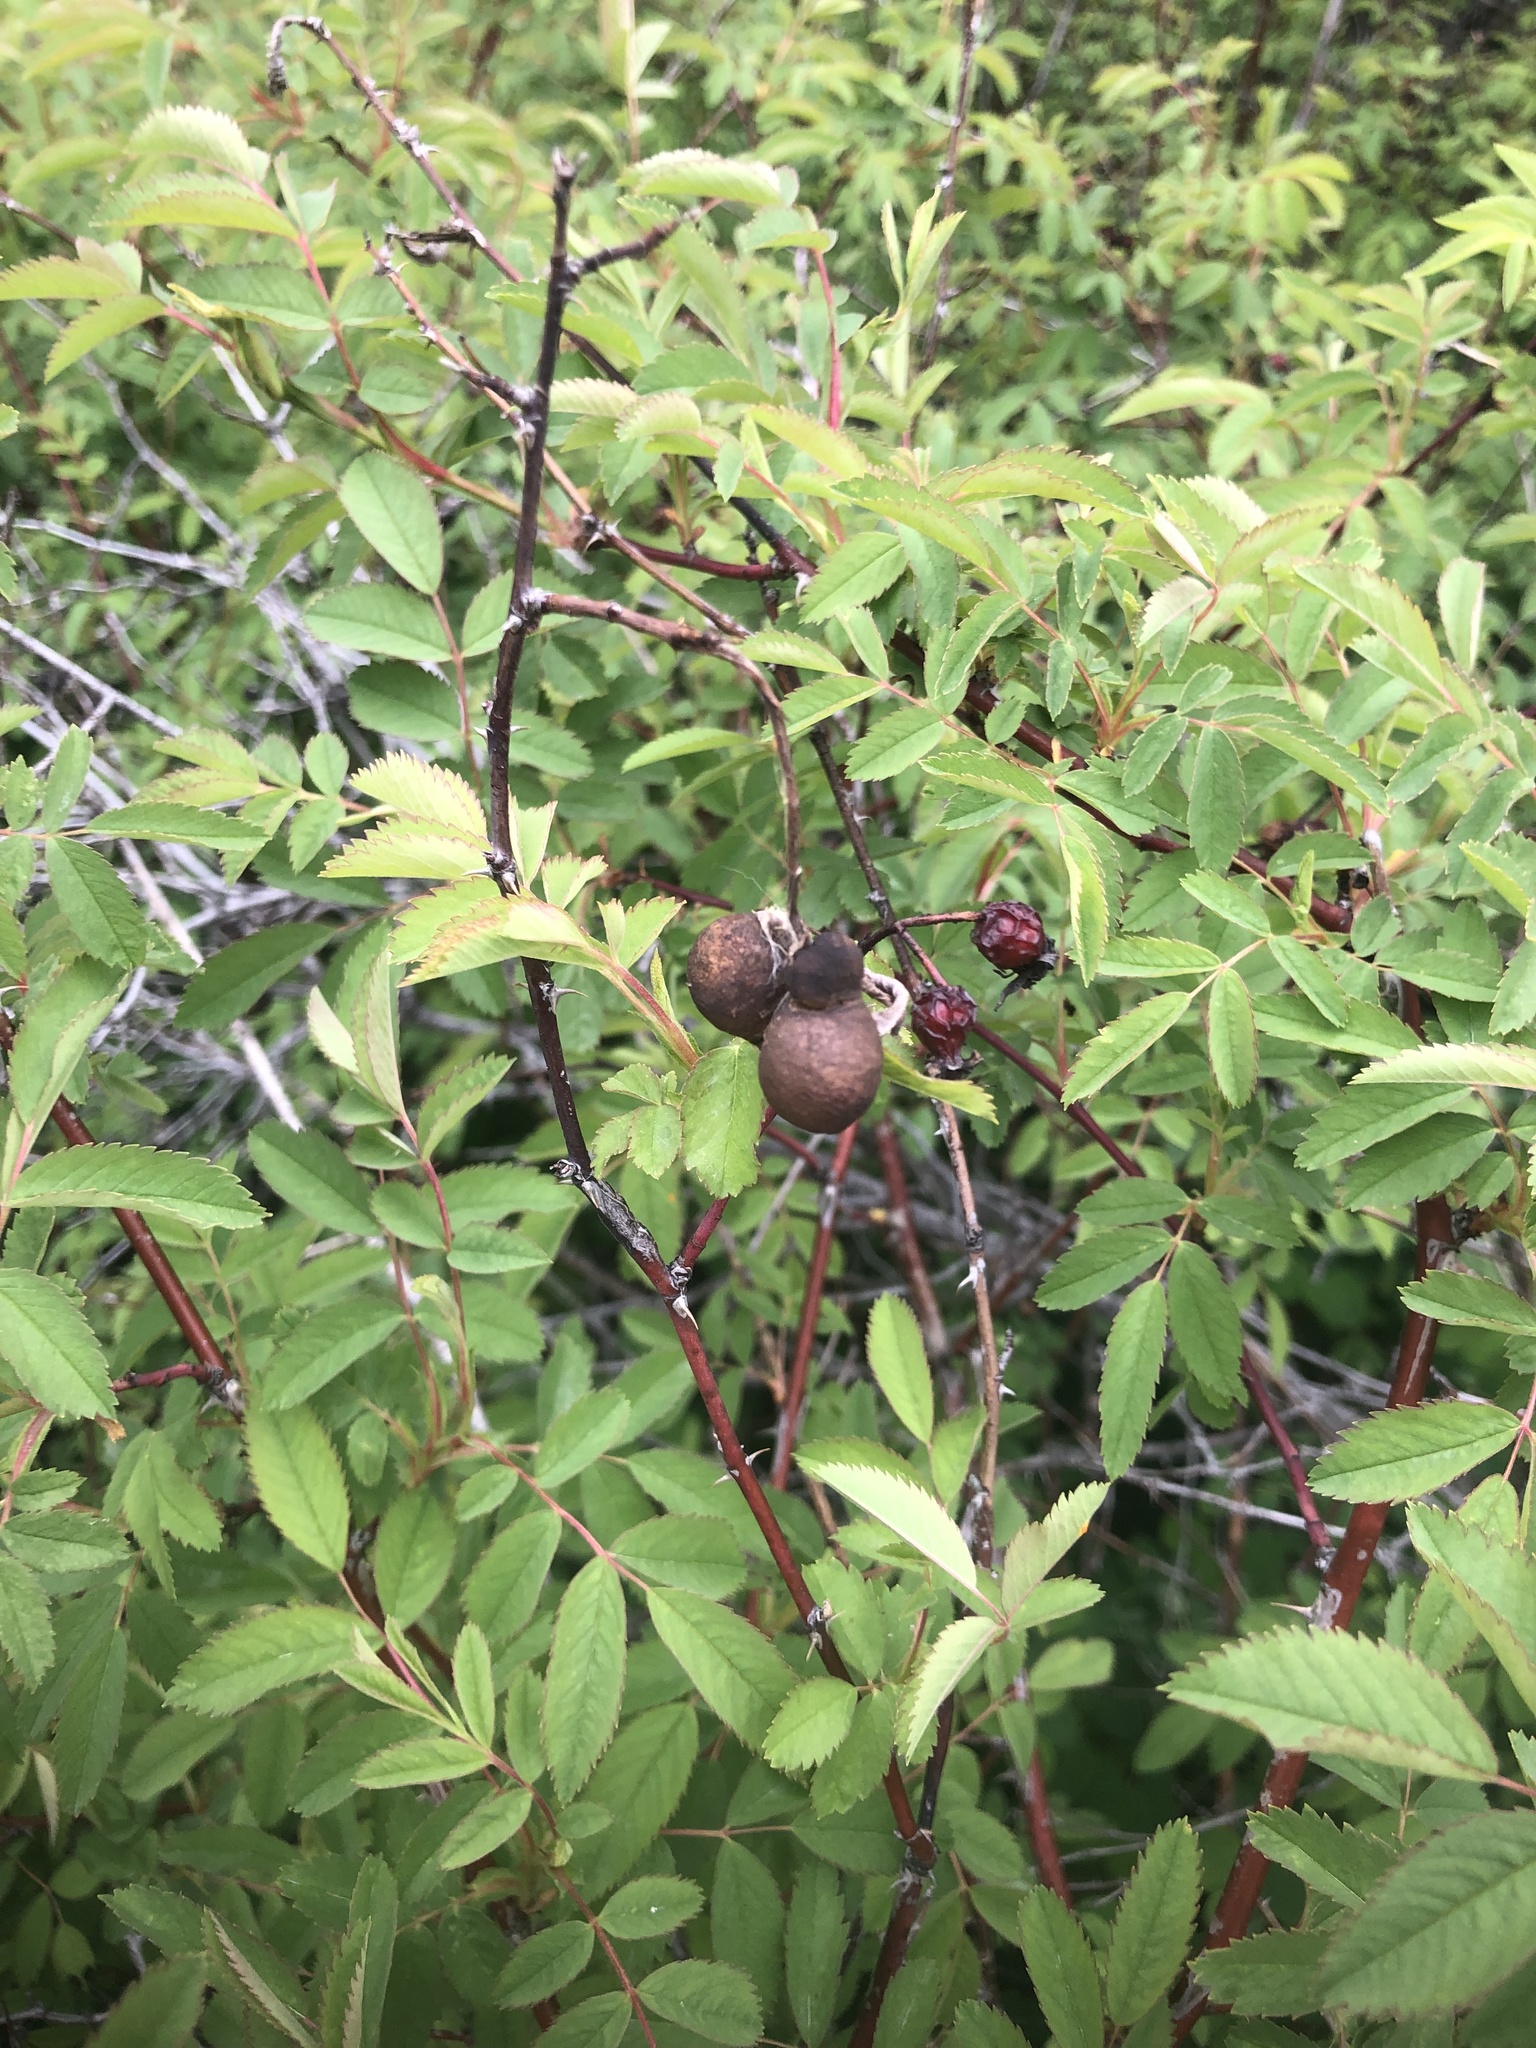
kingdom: Animalia
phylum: Arthropoda
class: Insecta
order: Hymenoptera
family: Cynipidae
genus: Diplolepis
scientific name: Diplolepis variabilis
